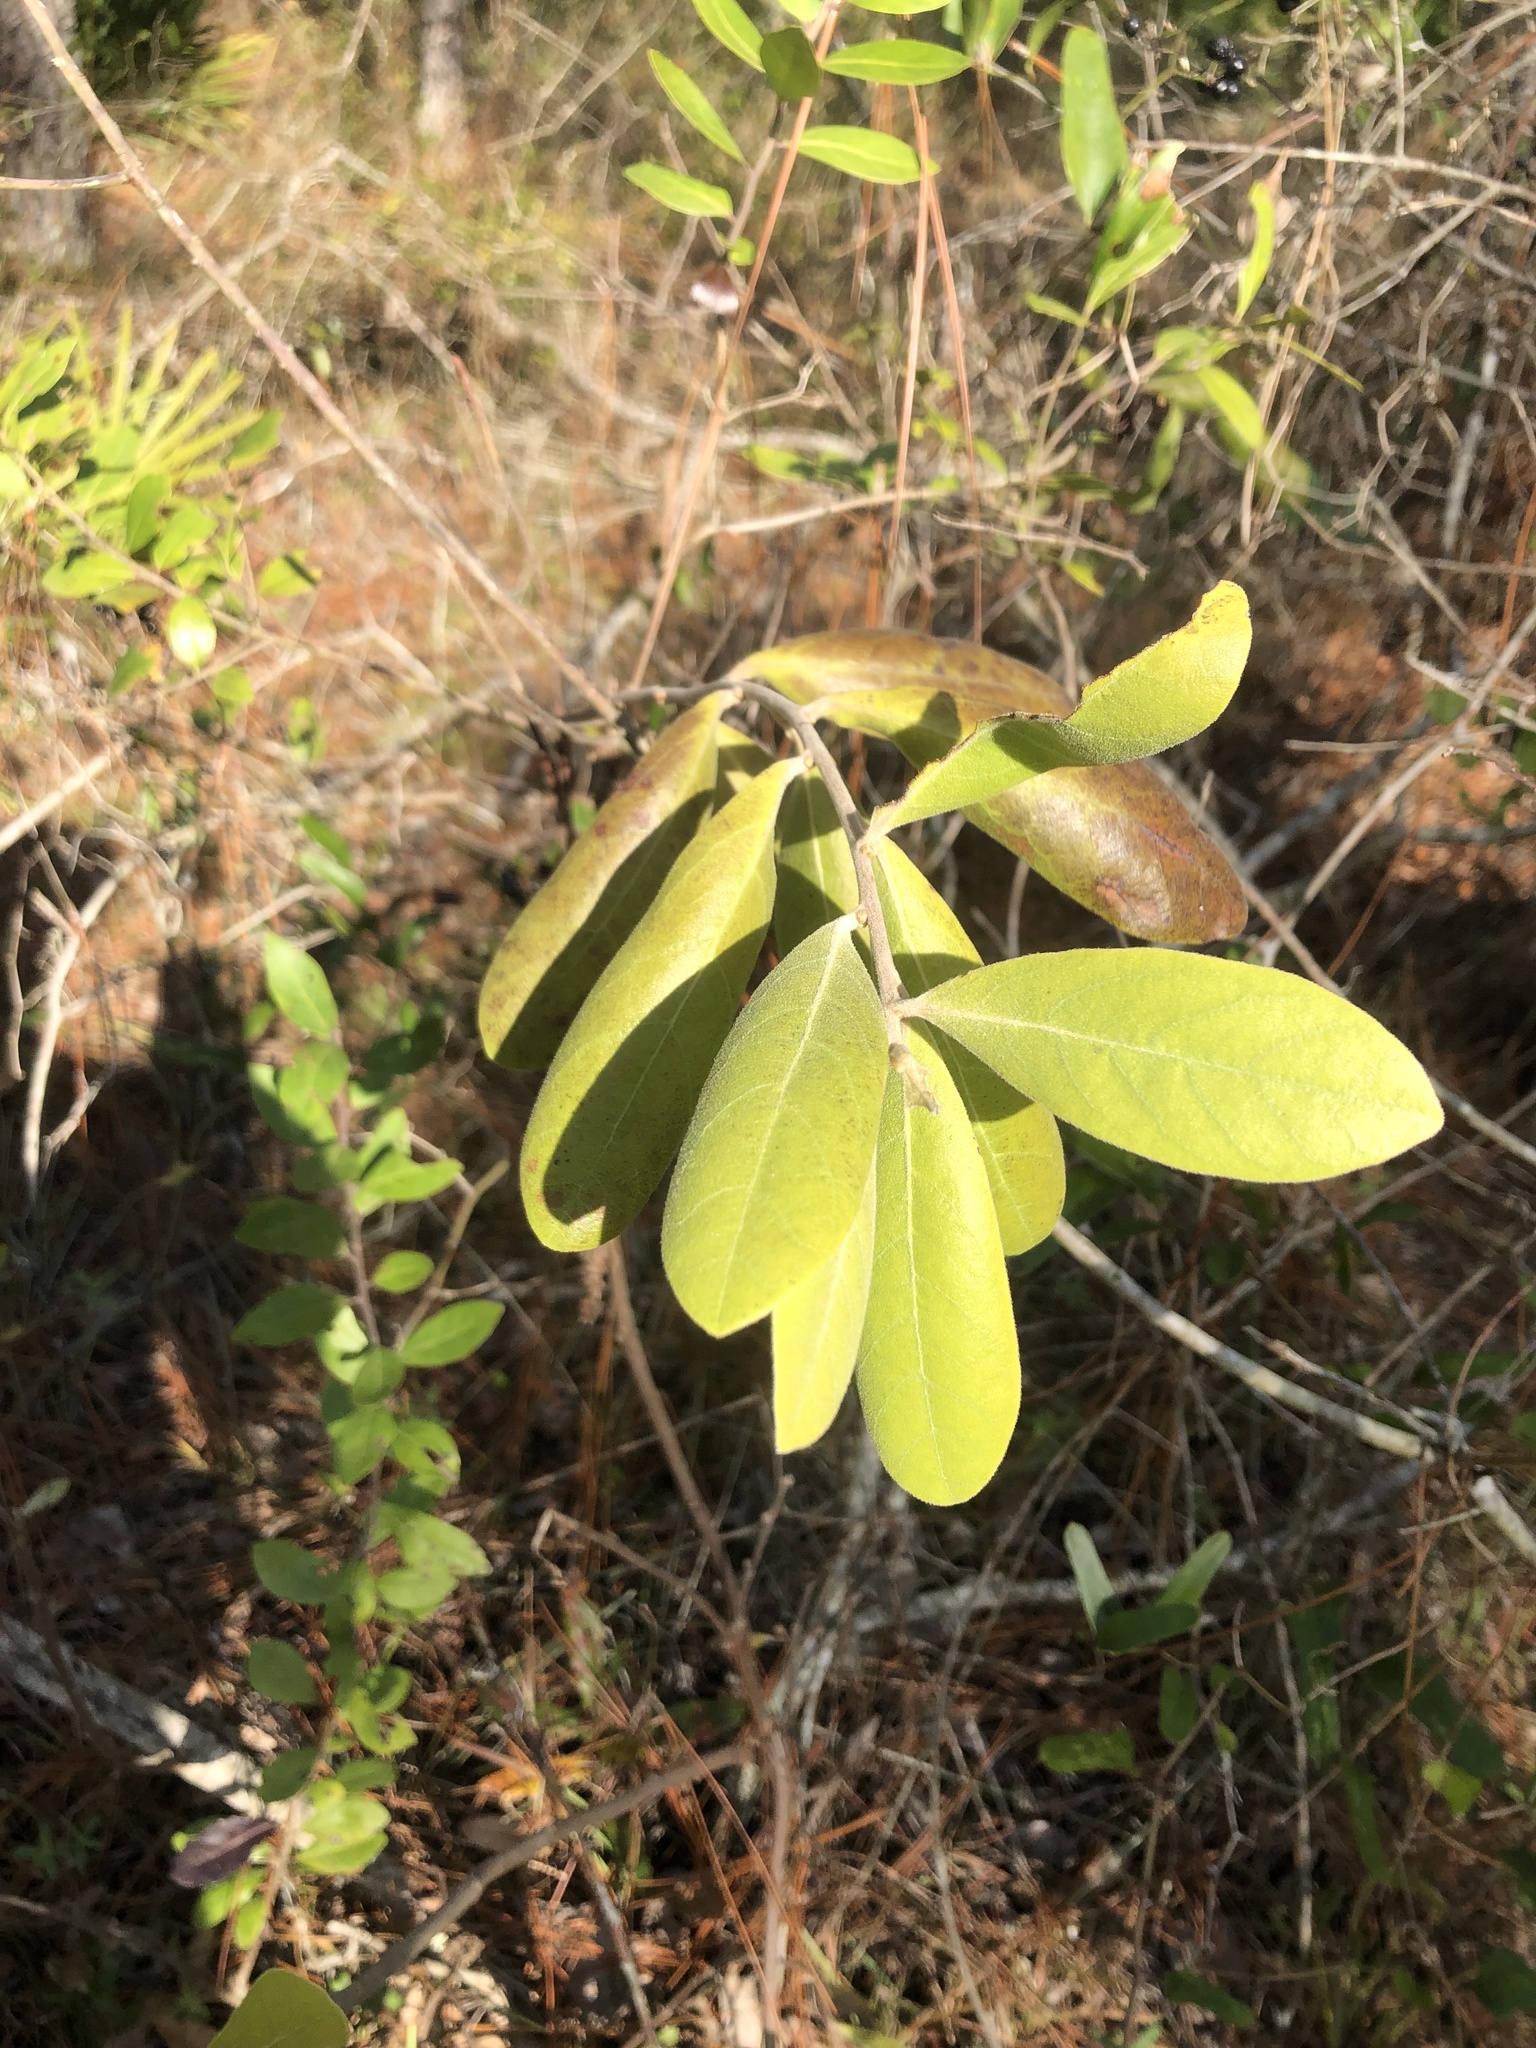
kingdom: Plantae
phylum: Tracheophyta
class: Magnoliopsida
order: Magnoliales
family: Annonaceae
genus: Asimina
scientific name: Asimina speciosa
